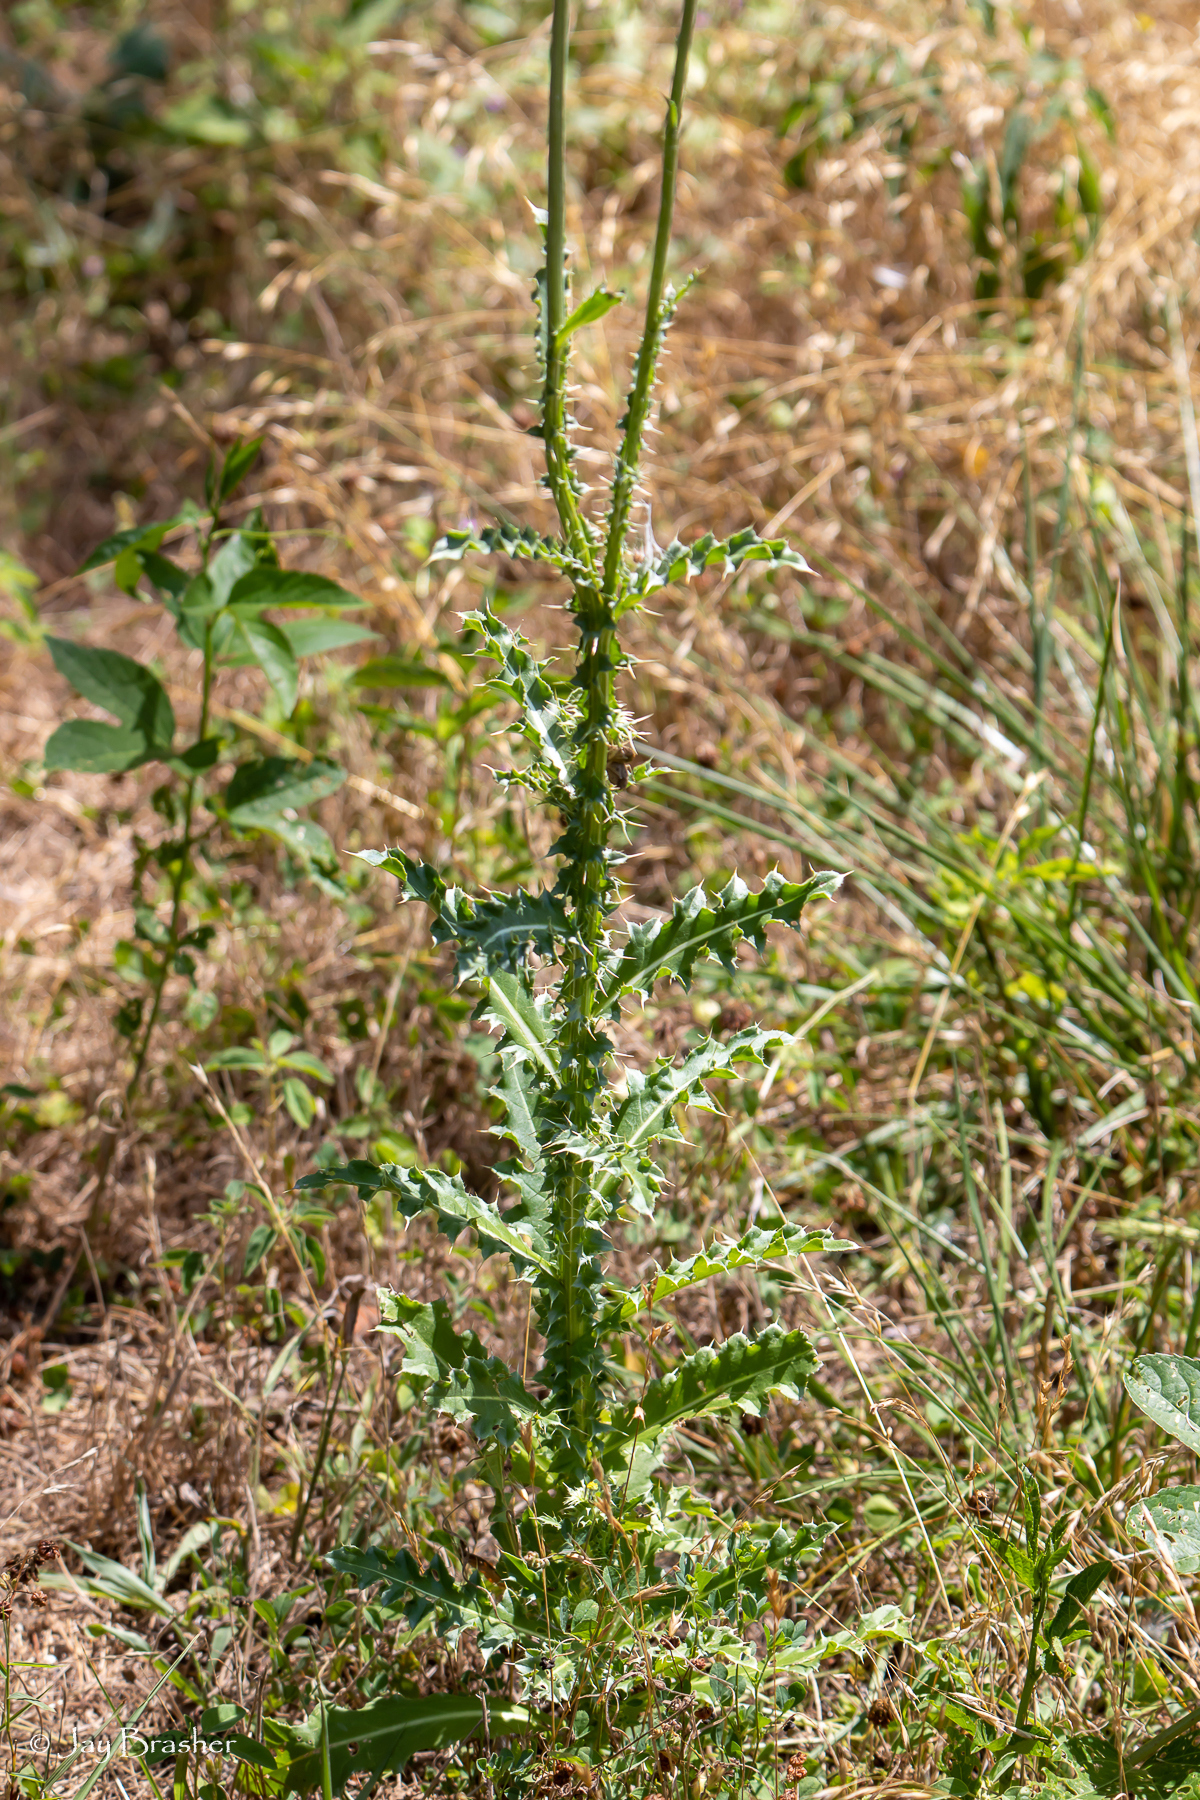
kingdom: Plantae
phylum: Tracheophyta
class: Magnoliopsida
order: Asterales
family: Asteraceae
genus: Carduus
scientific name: Carduus nutans
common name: Musk thistle
